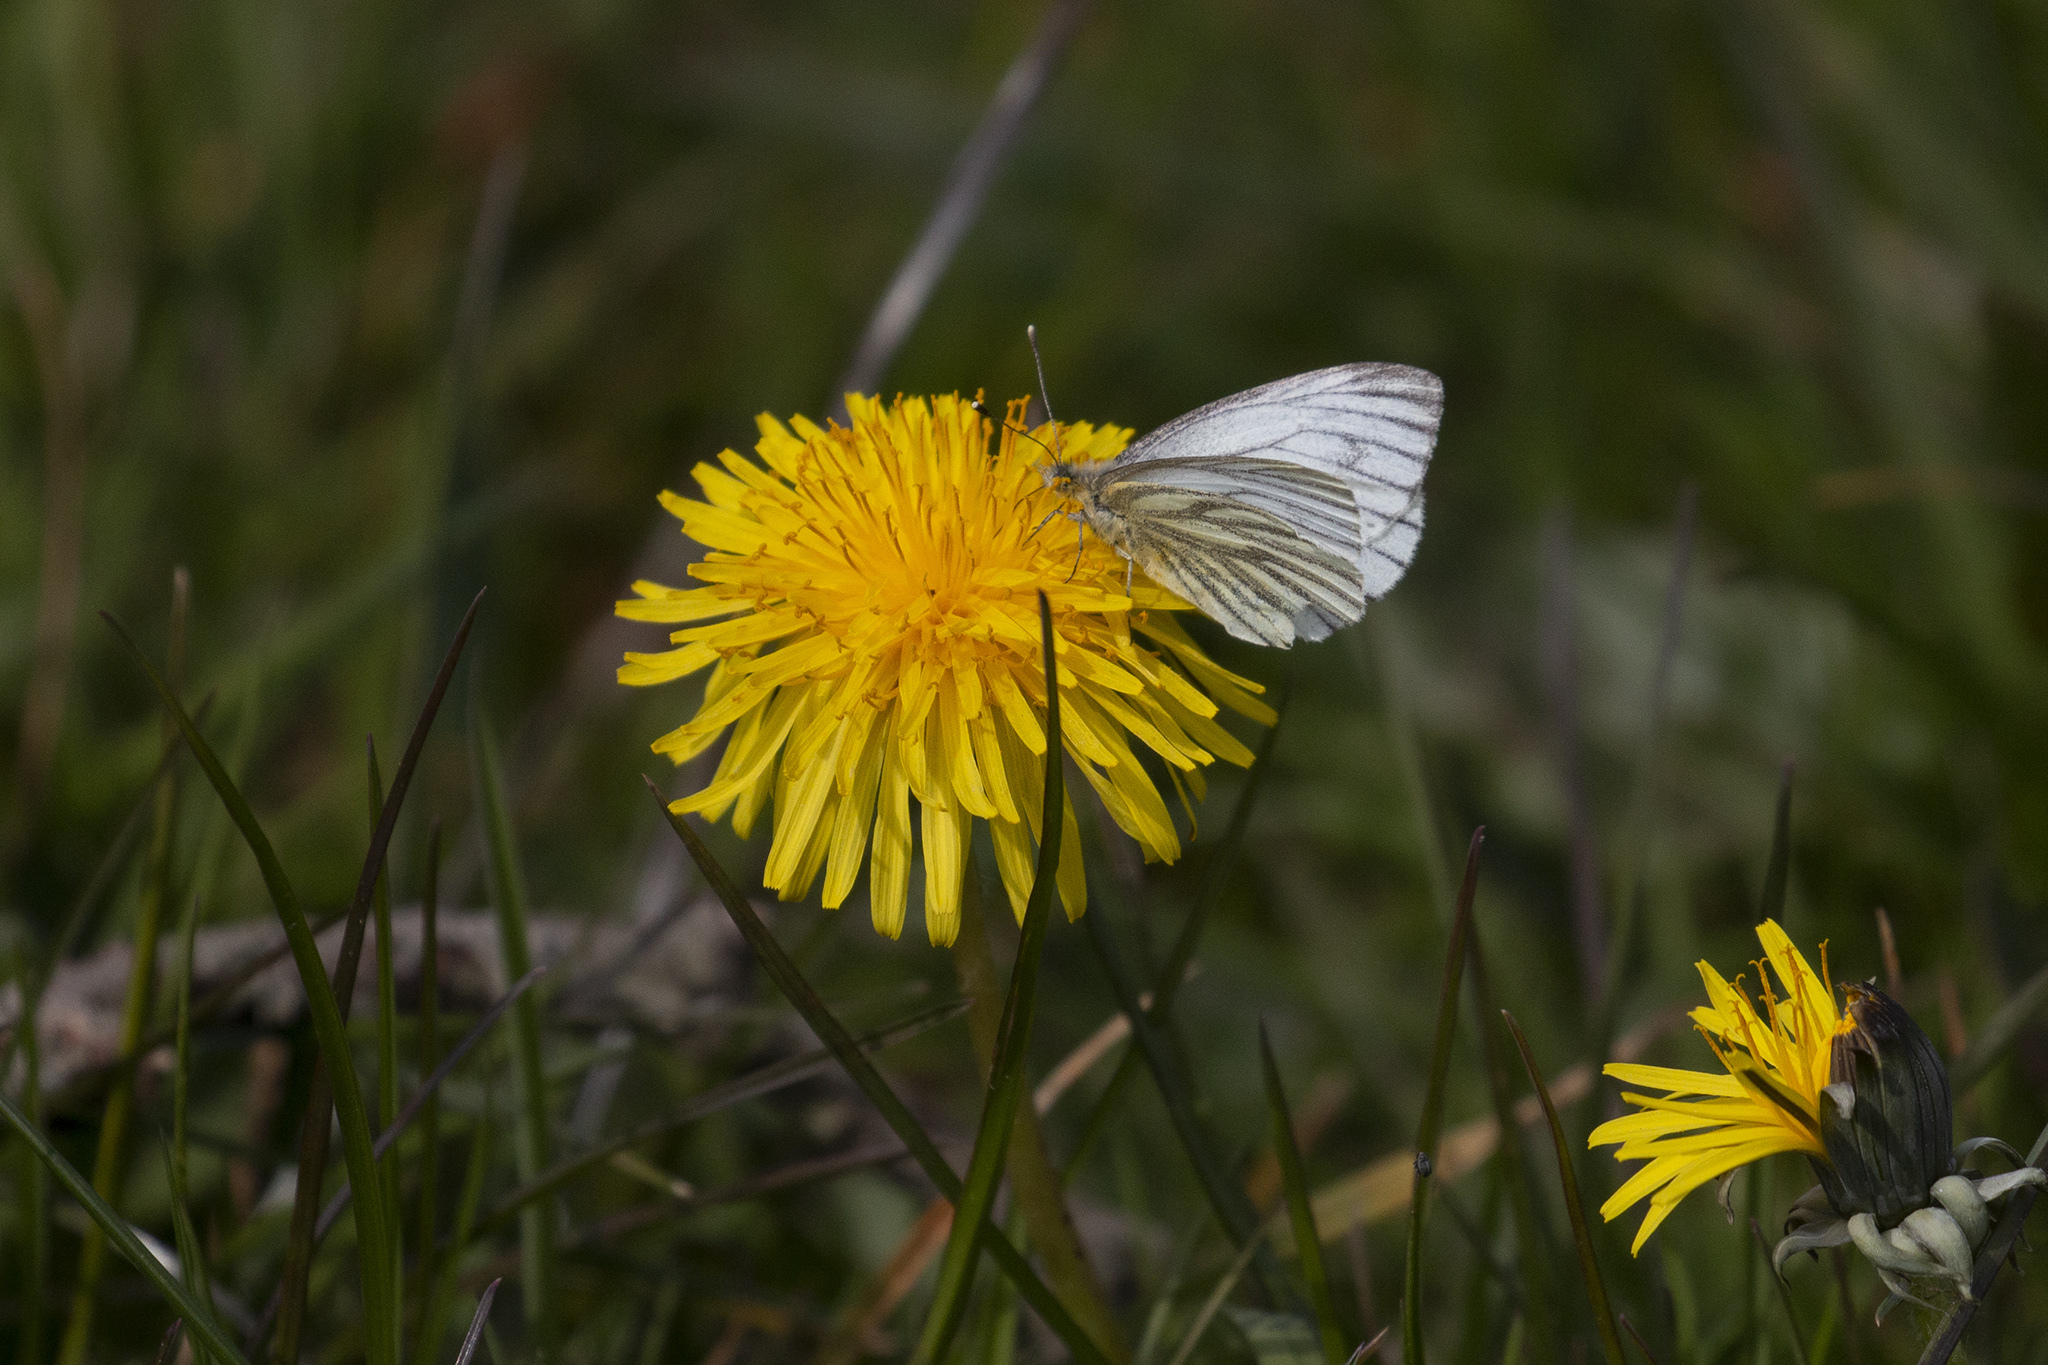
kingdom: Animalia
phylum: Arthropoda
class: Insecta
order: Lepidoptera
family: Pieridae
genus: Pieris
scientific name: Pieris napi
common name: Green-veined white
